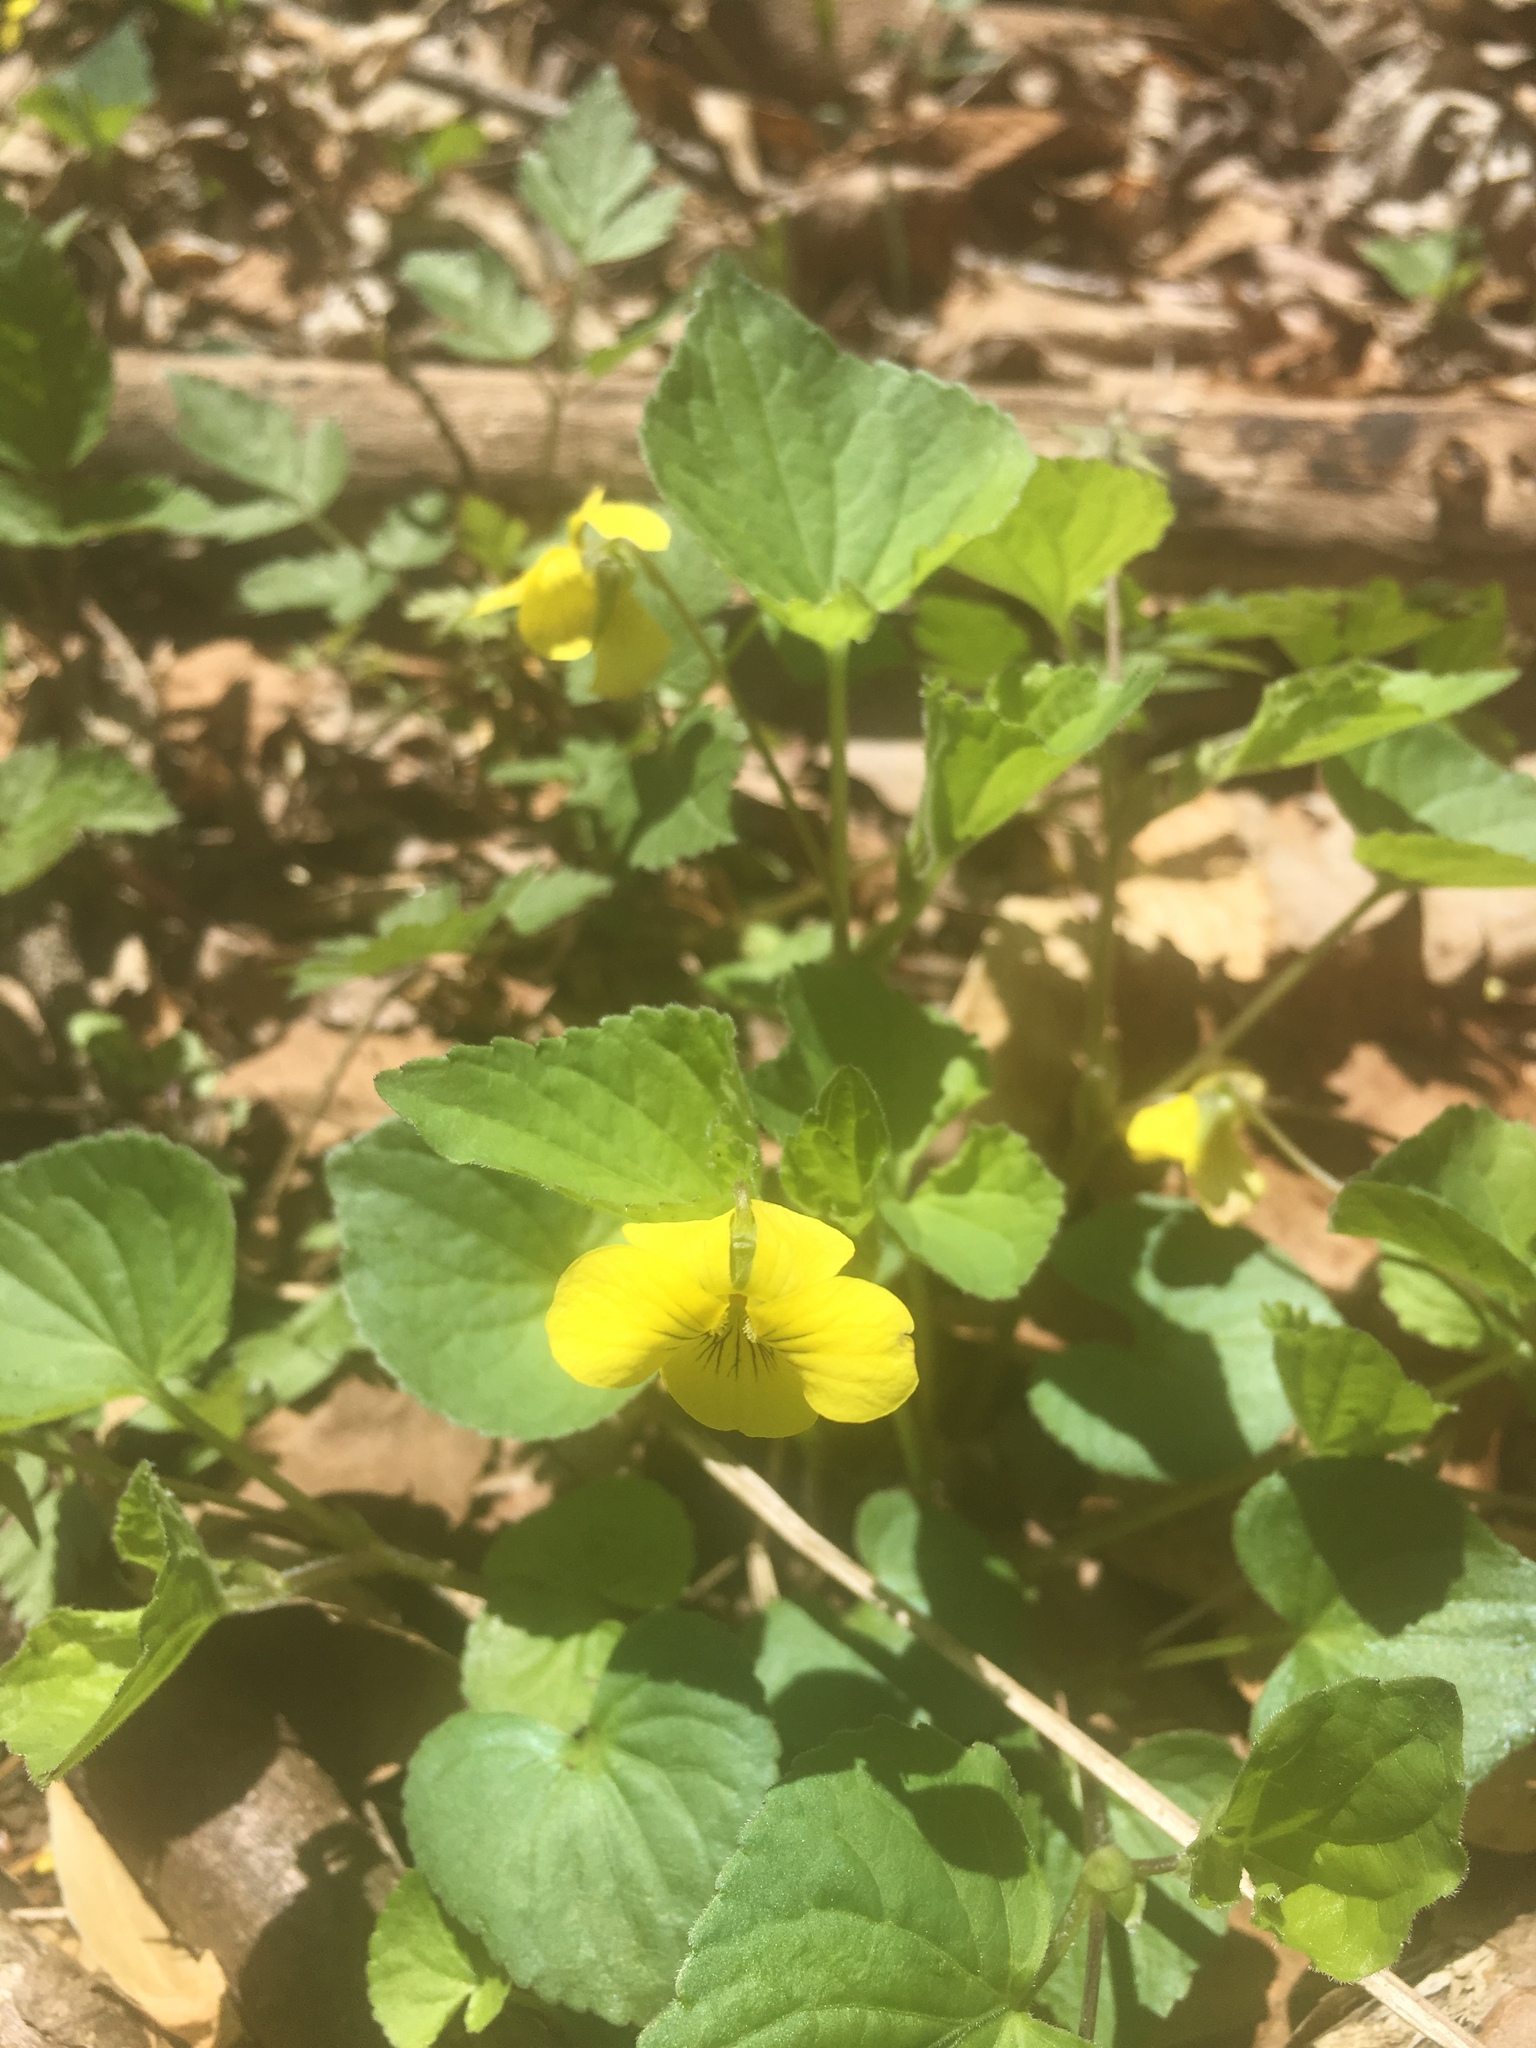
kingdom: Plantae
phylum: Tracheophyta
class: Magnoliopsida
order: Malpighiales
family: Violaceae
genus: Viola
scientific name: Viola eriocarpa
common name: Smooth yellow violet
